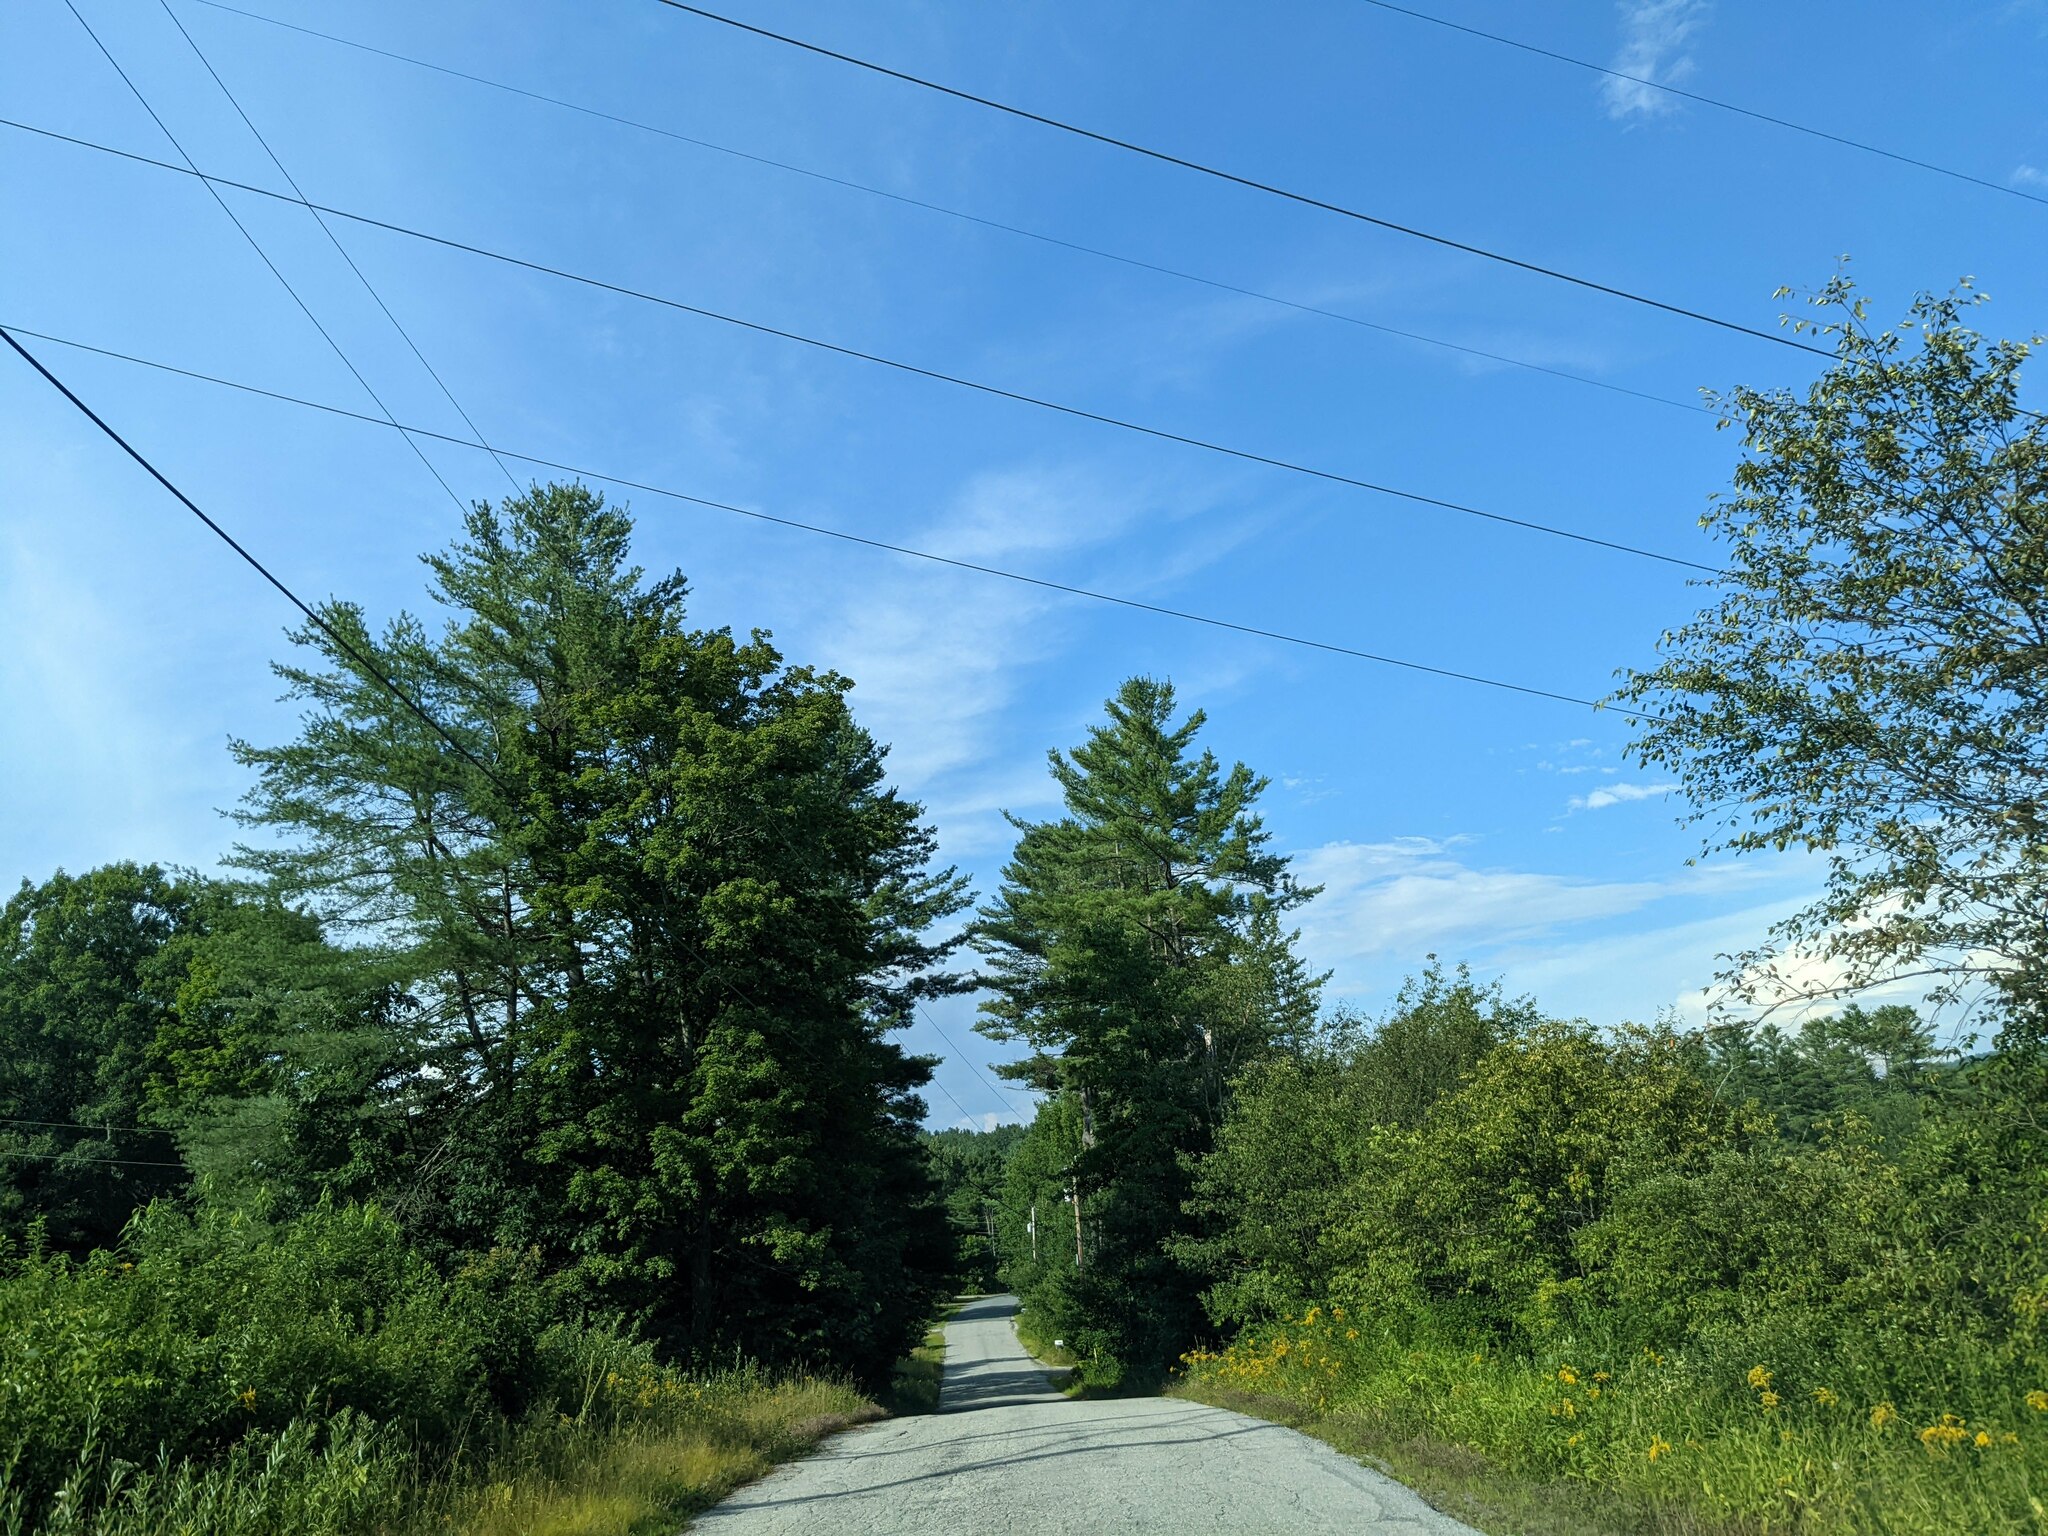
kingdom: Plantae
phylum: Tracheophyta
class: Pinopsida
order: Pinales
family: Pinaceae
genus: Pinus
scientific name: Pinus strobus
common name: Weymouth pine
